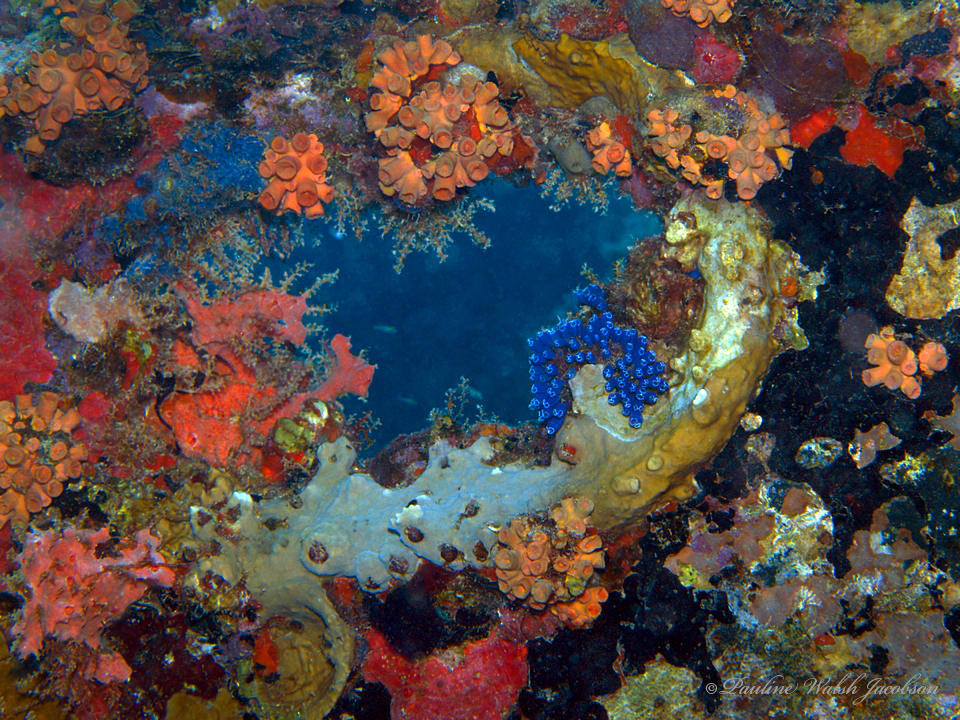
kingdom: Animalia
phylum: Cnidaria
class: Anthozoa
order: Scleractinia
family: Dendrophylliidae
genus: Tubastraea
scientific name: Tubastraea tagusensis
